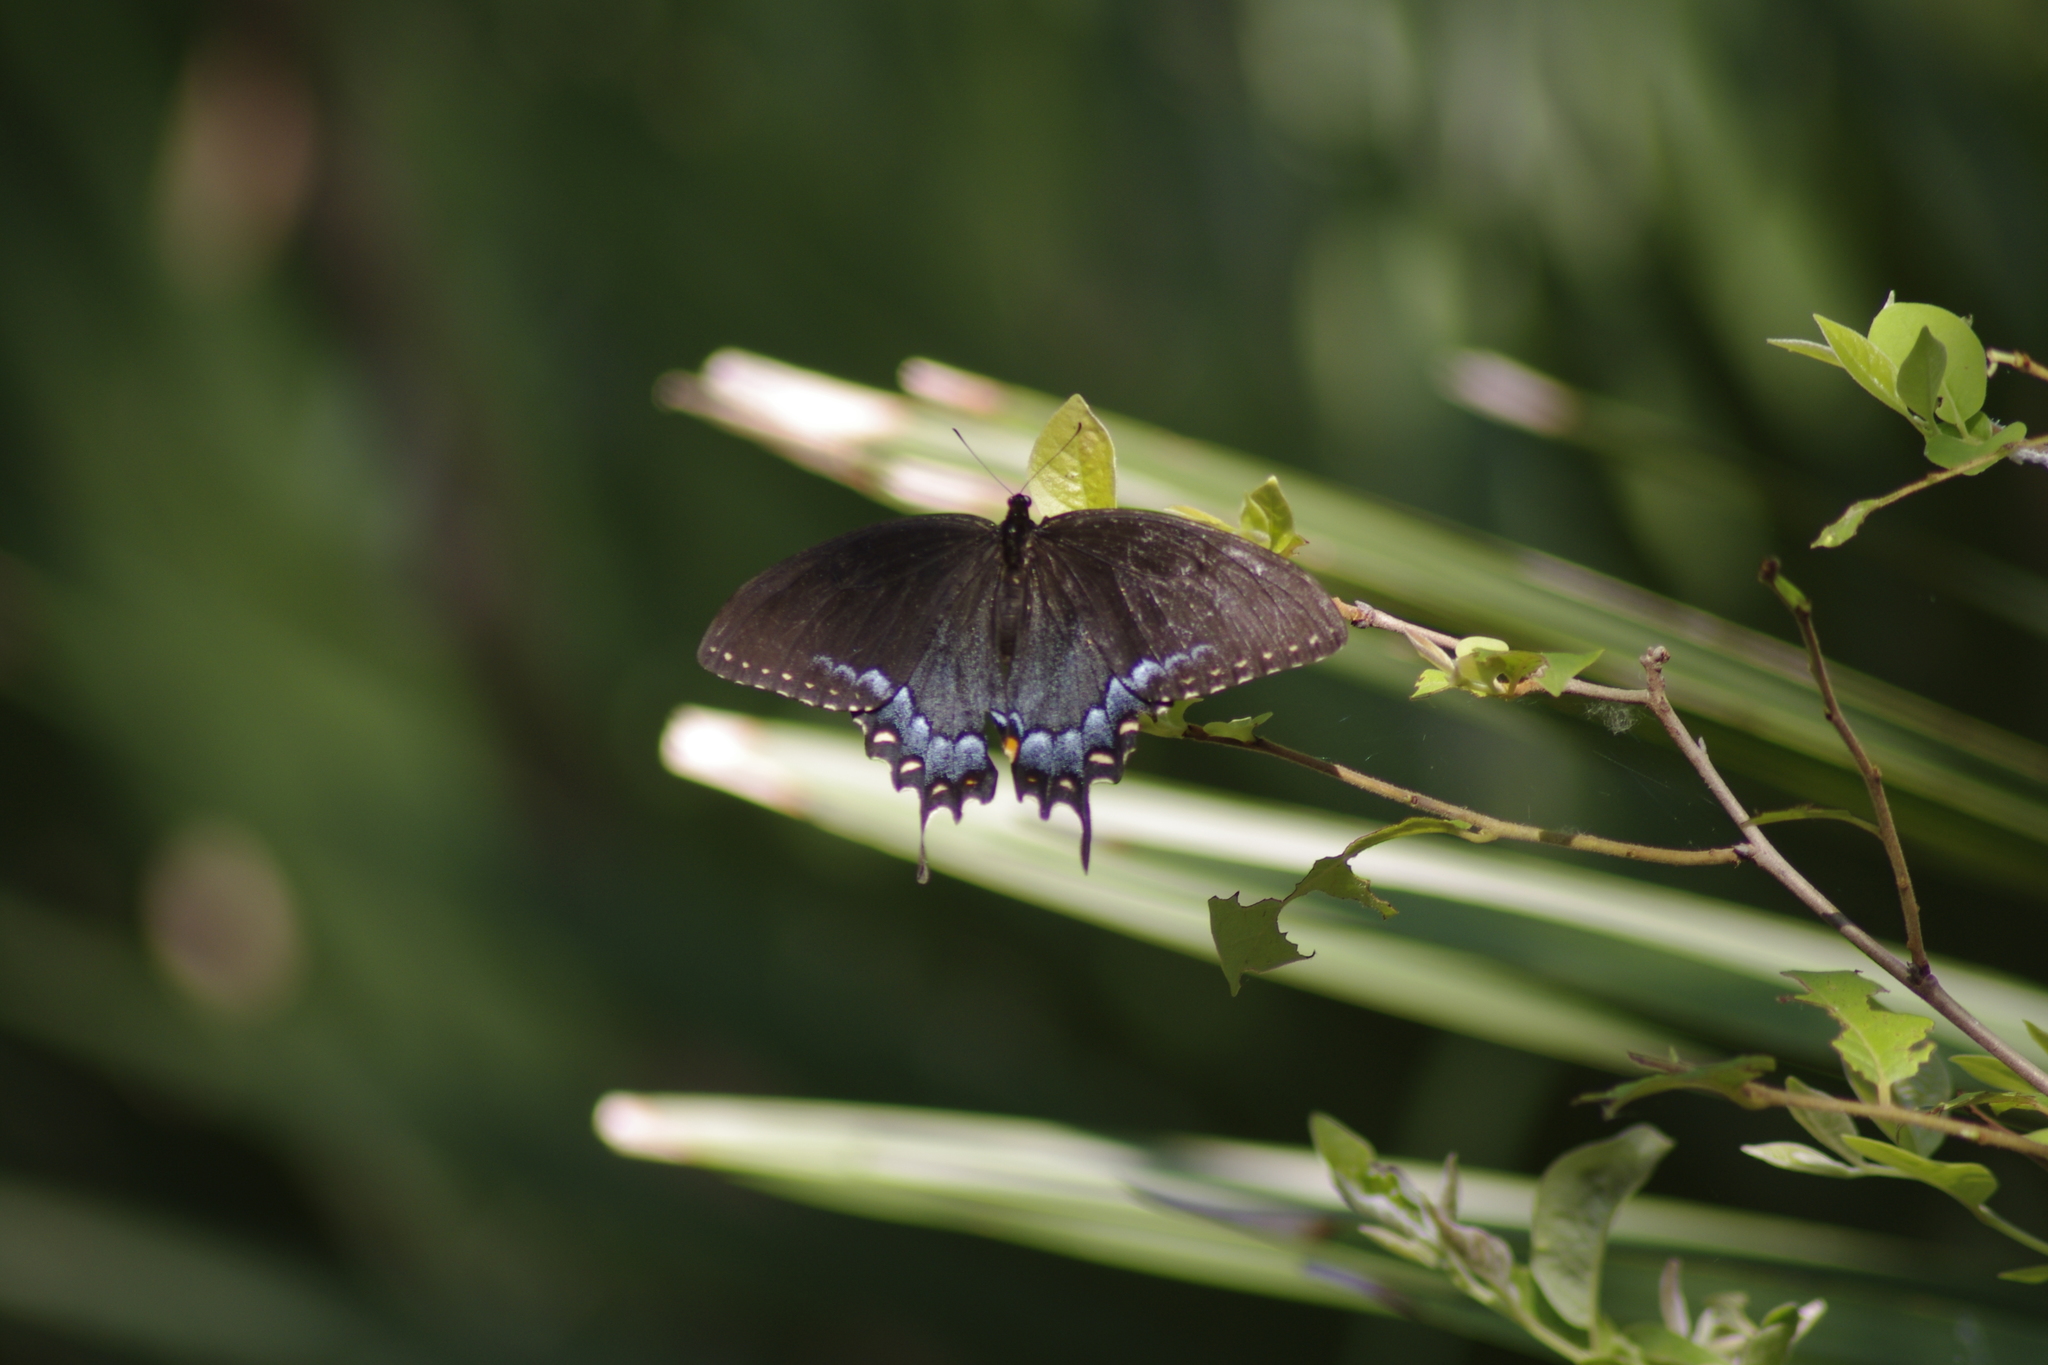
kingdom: Animalia
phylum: Arthropoda
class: Insecta
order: Lepidoptera
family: Papilionidae
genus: Papilio
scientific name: Papilio glaucus
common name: Tiger swallowtail
